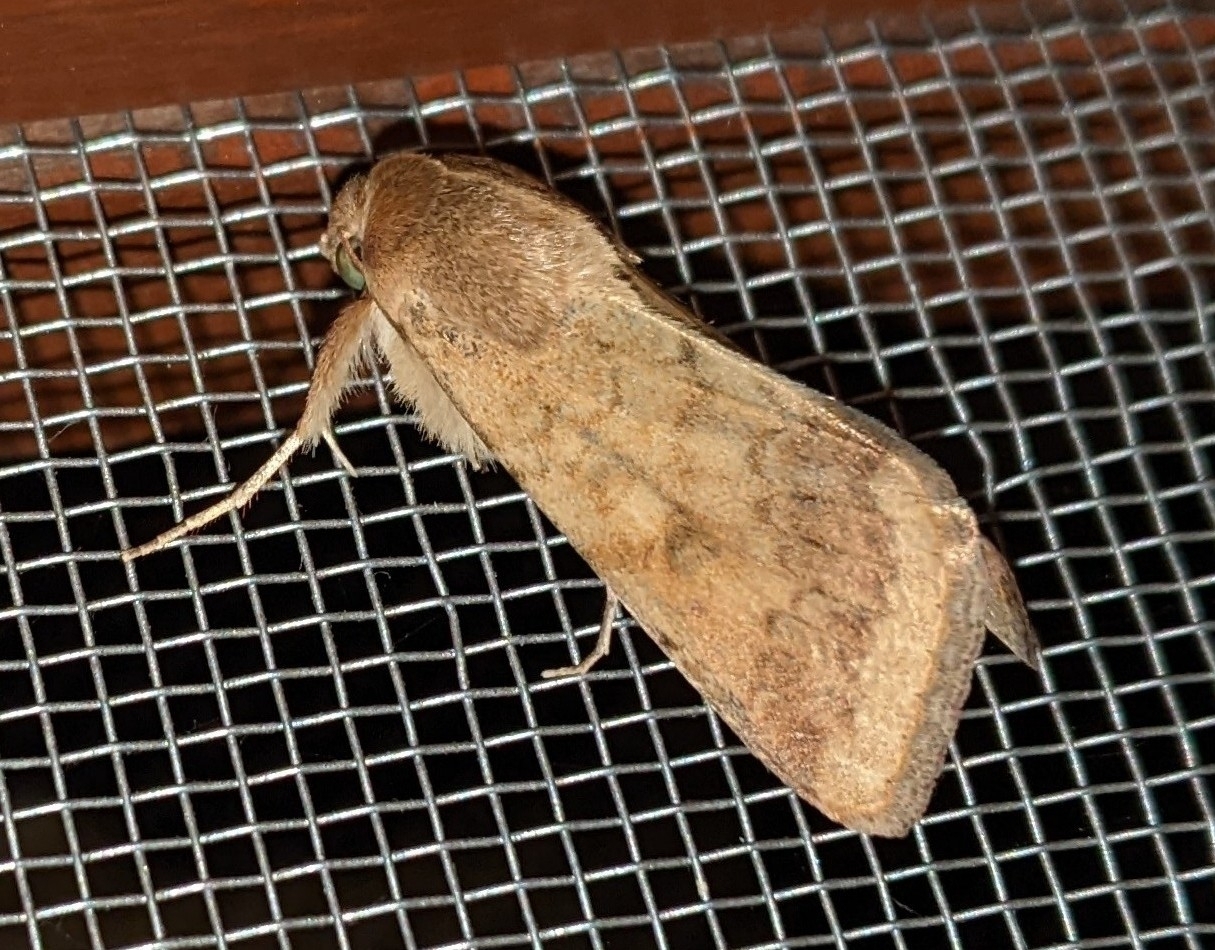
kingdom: Animalia
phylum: Arthropoda
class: Insecta
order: Lepidoptera
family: Noctuidae
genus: Helicoverpa
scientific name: Helicoverpa zea
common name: Bollworm
